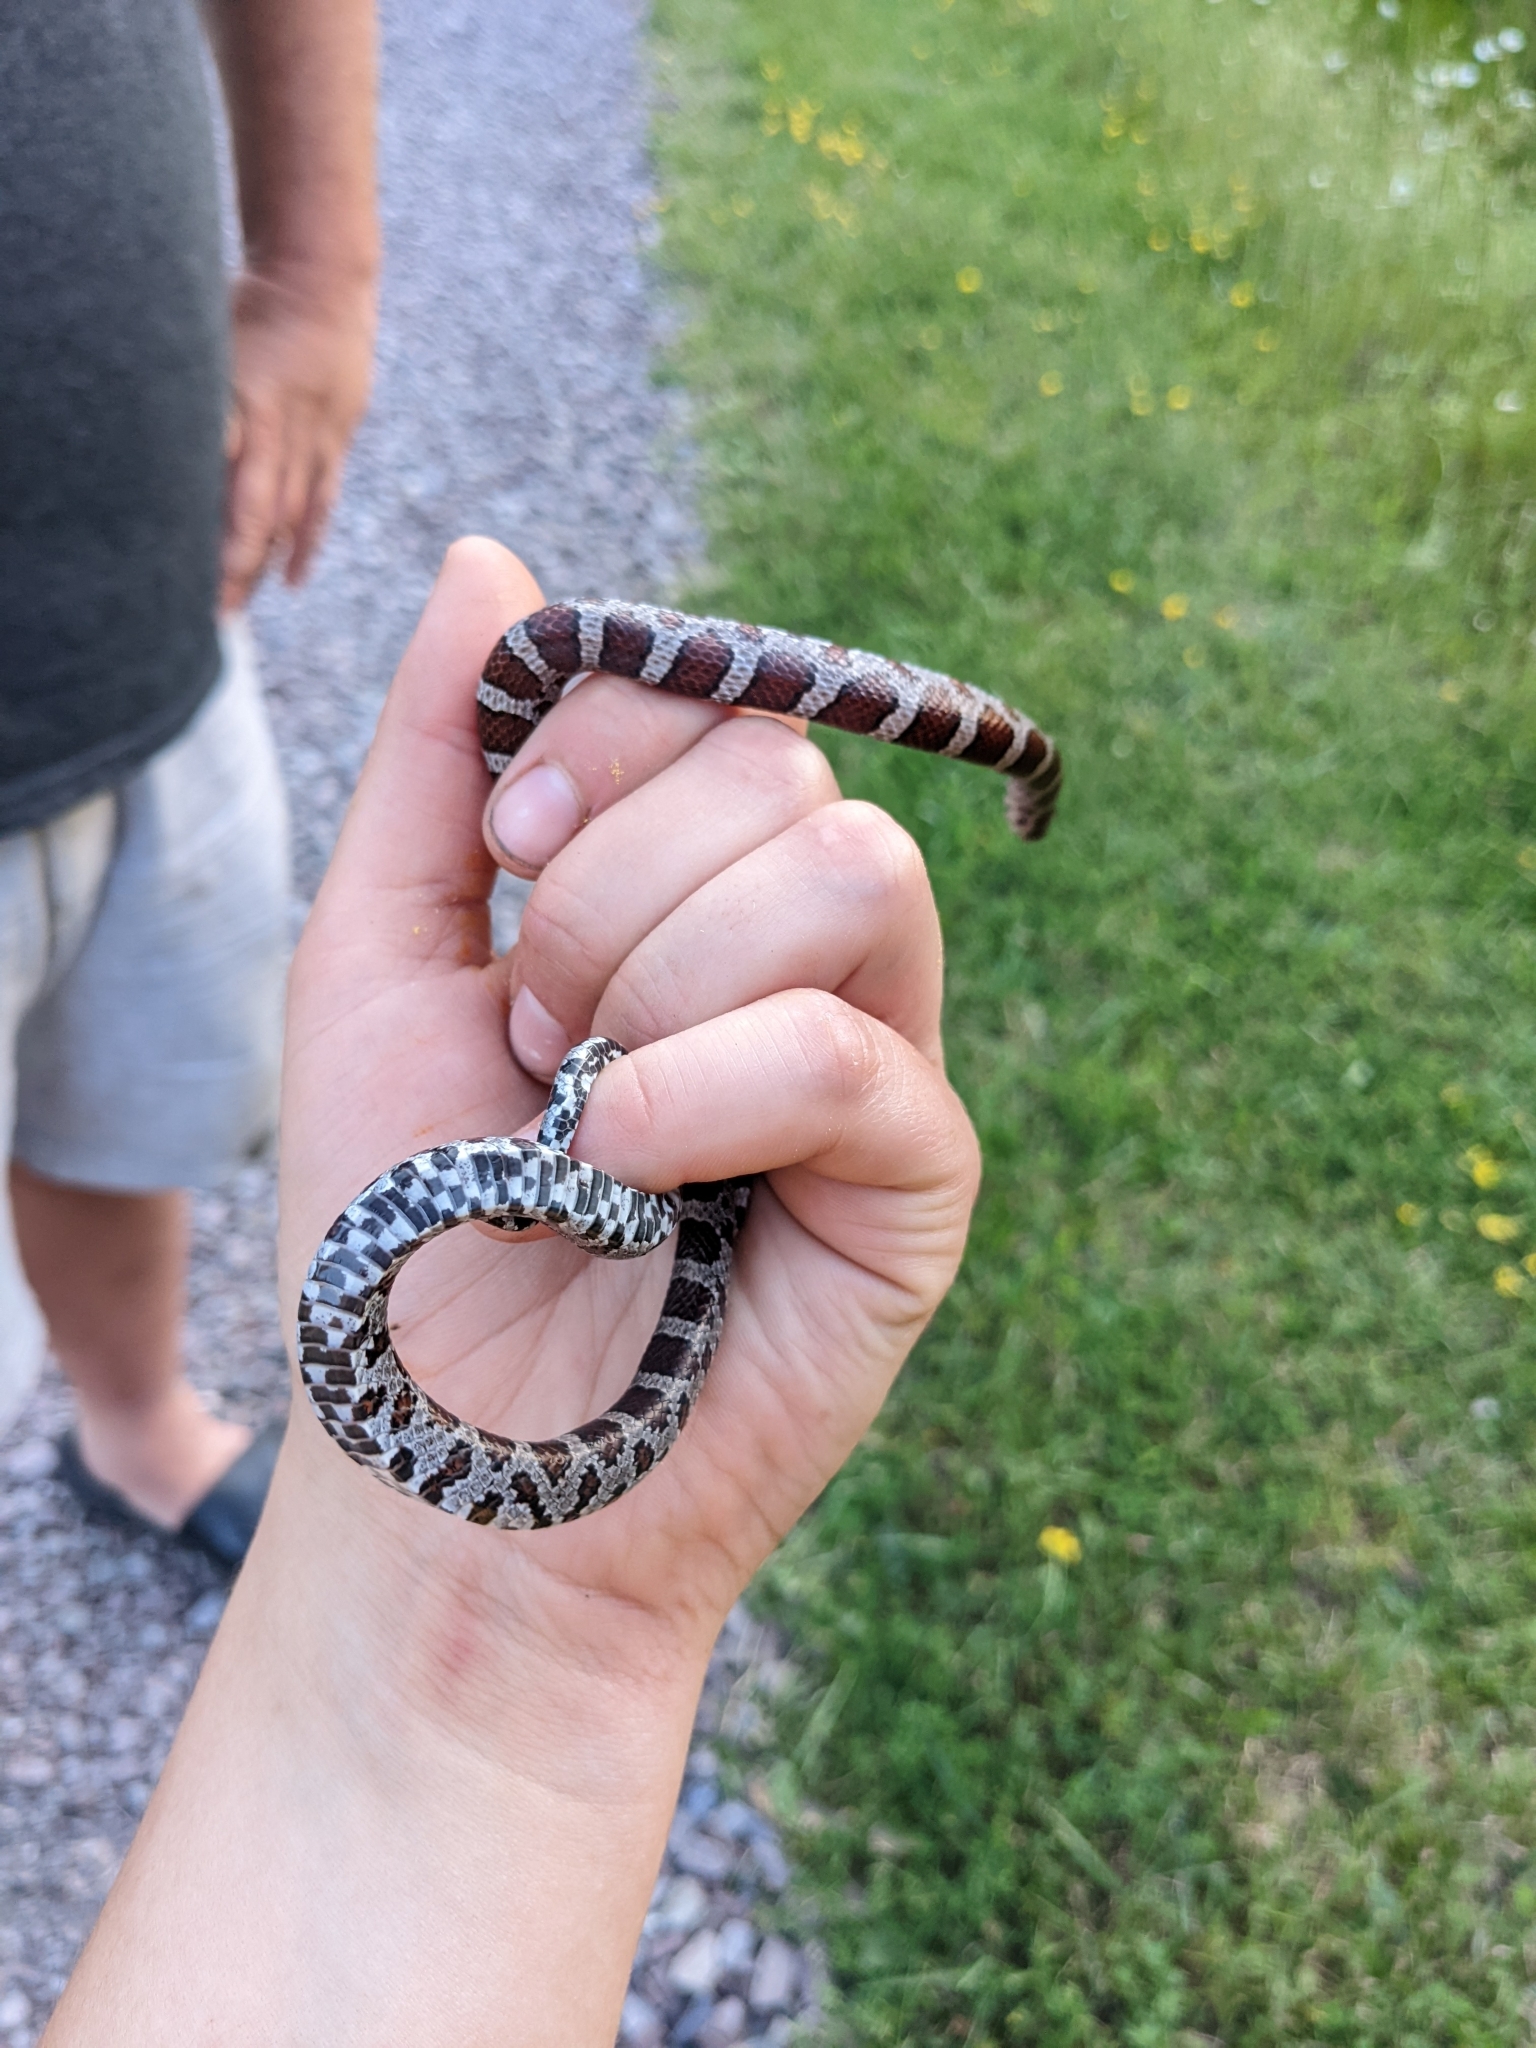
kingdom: Animalia
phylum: Chordata
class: Squamata
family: Colubridae
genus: Lampropeltis
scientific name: Lampropeltis triangulum
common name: Eastern milksnake
